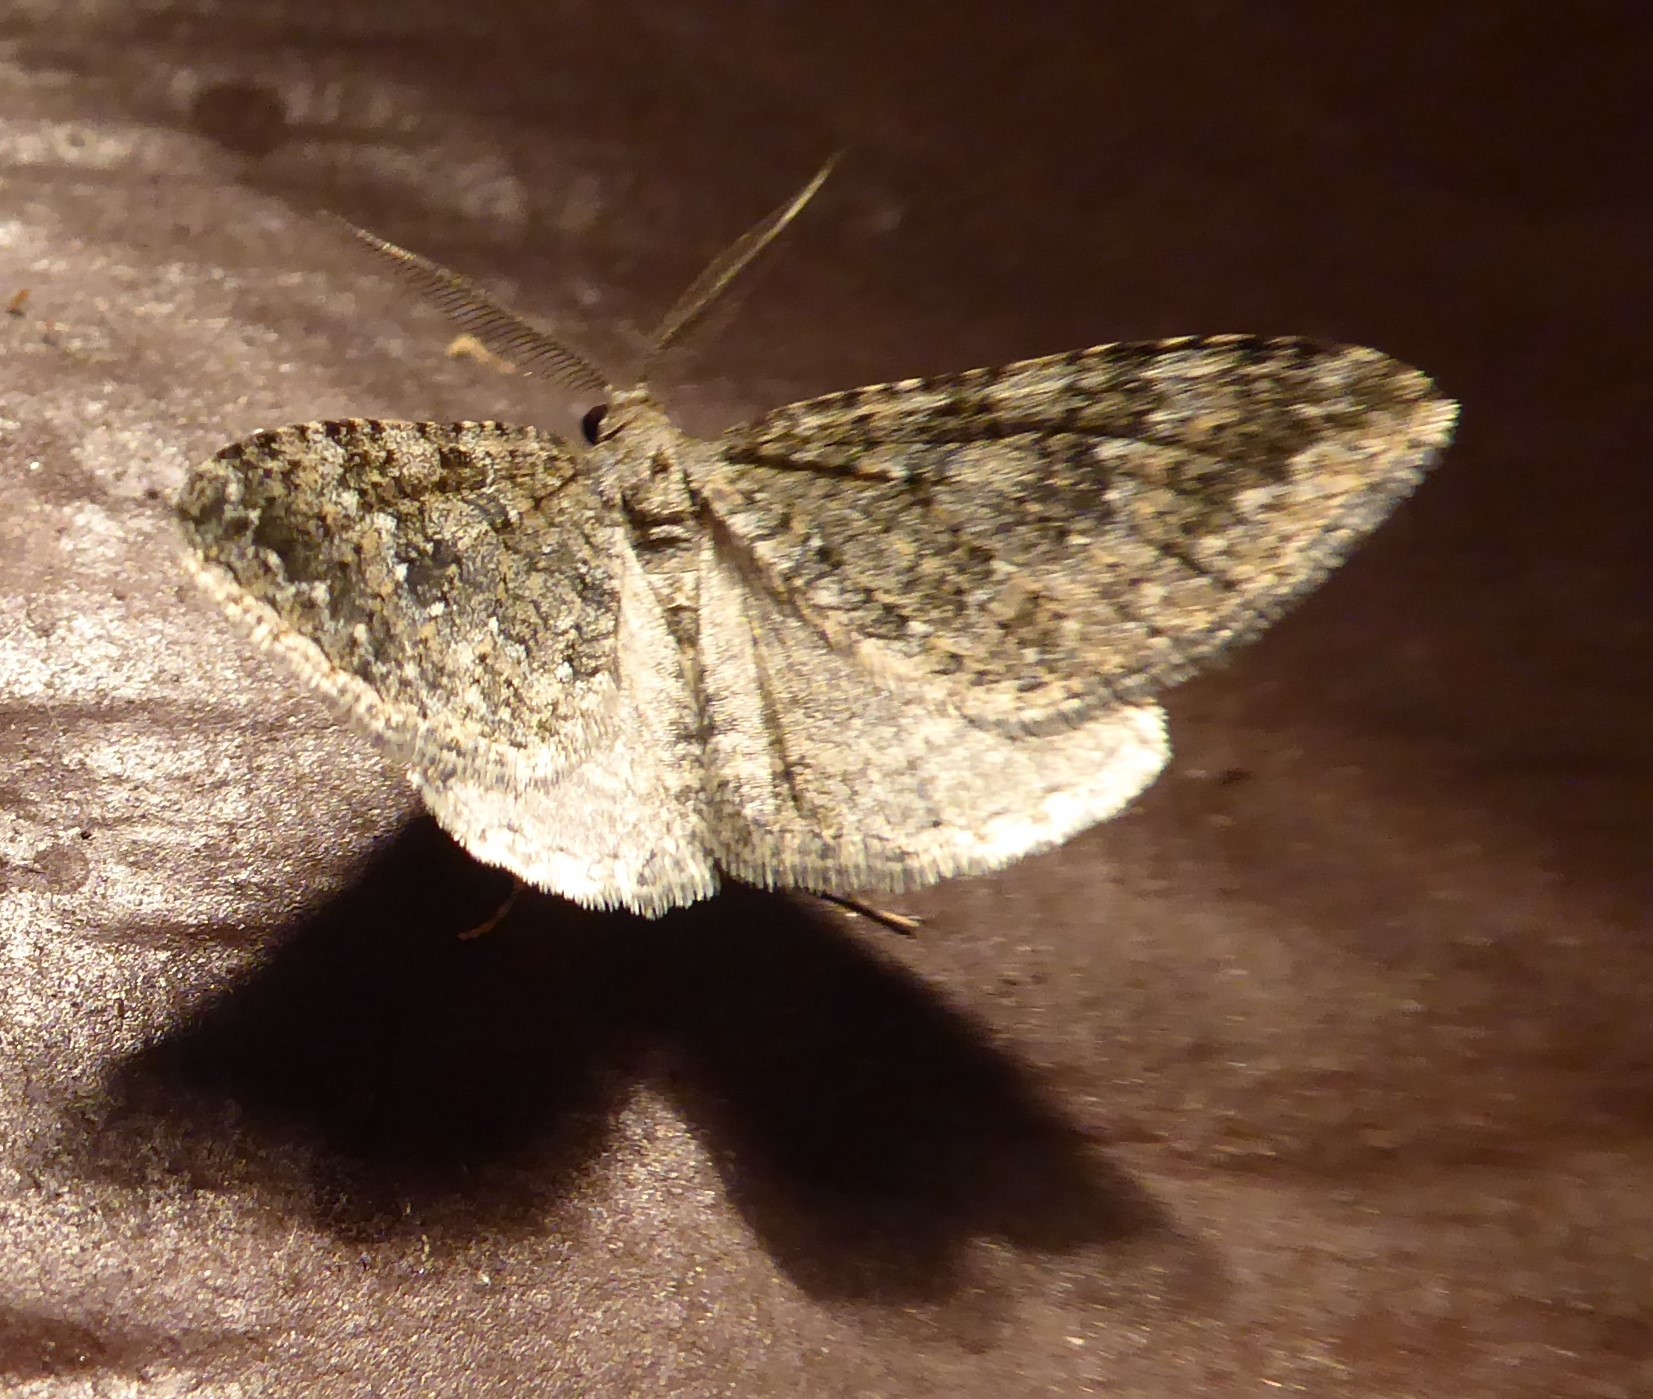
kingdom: Animalia
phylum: Arthropoda
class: Insecta
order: Lepidoptera
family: Geometridae
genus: Helastia
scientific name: Helastia corcularia
